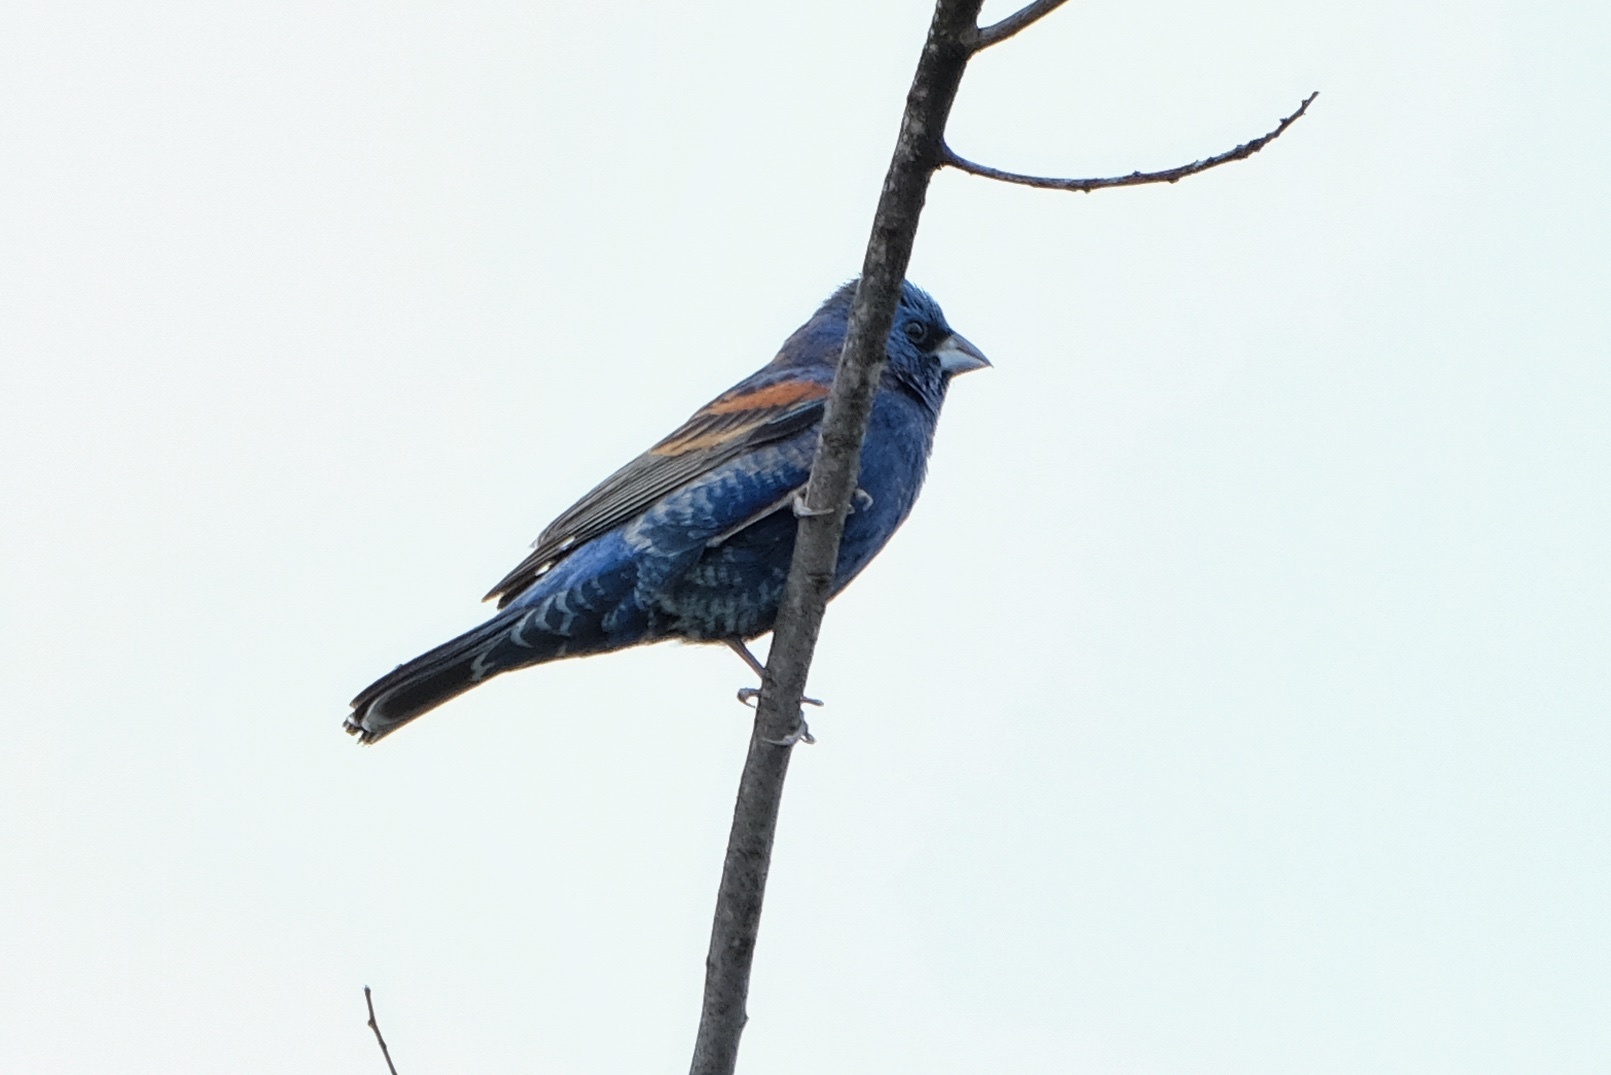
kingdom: Animalia
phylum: Chordata
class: Aves
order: Passeriformes
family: Cardinalidae
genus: Passerina
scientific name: Passerina caerulea
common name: Blue grosbeak
